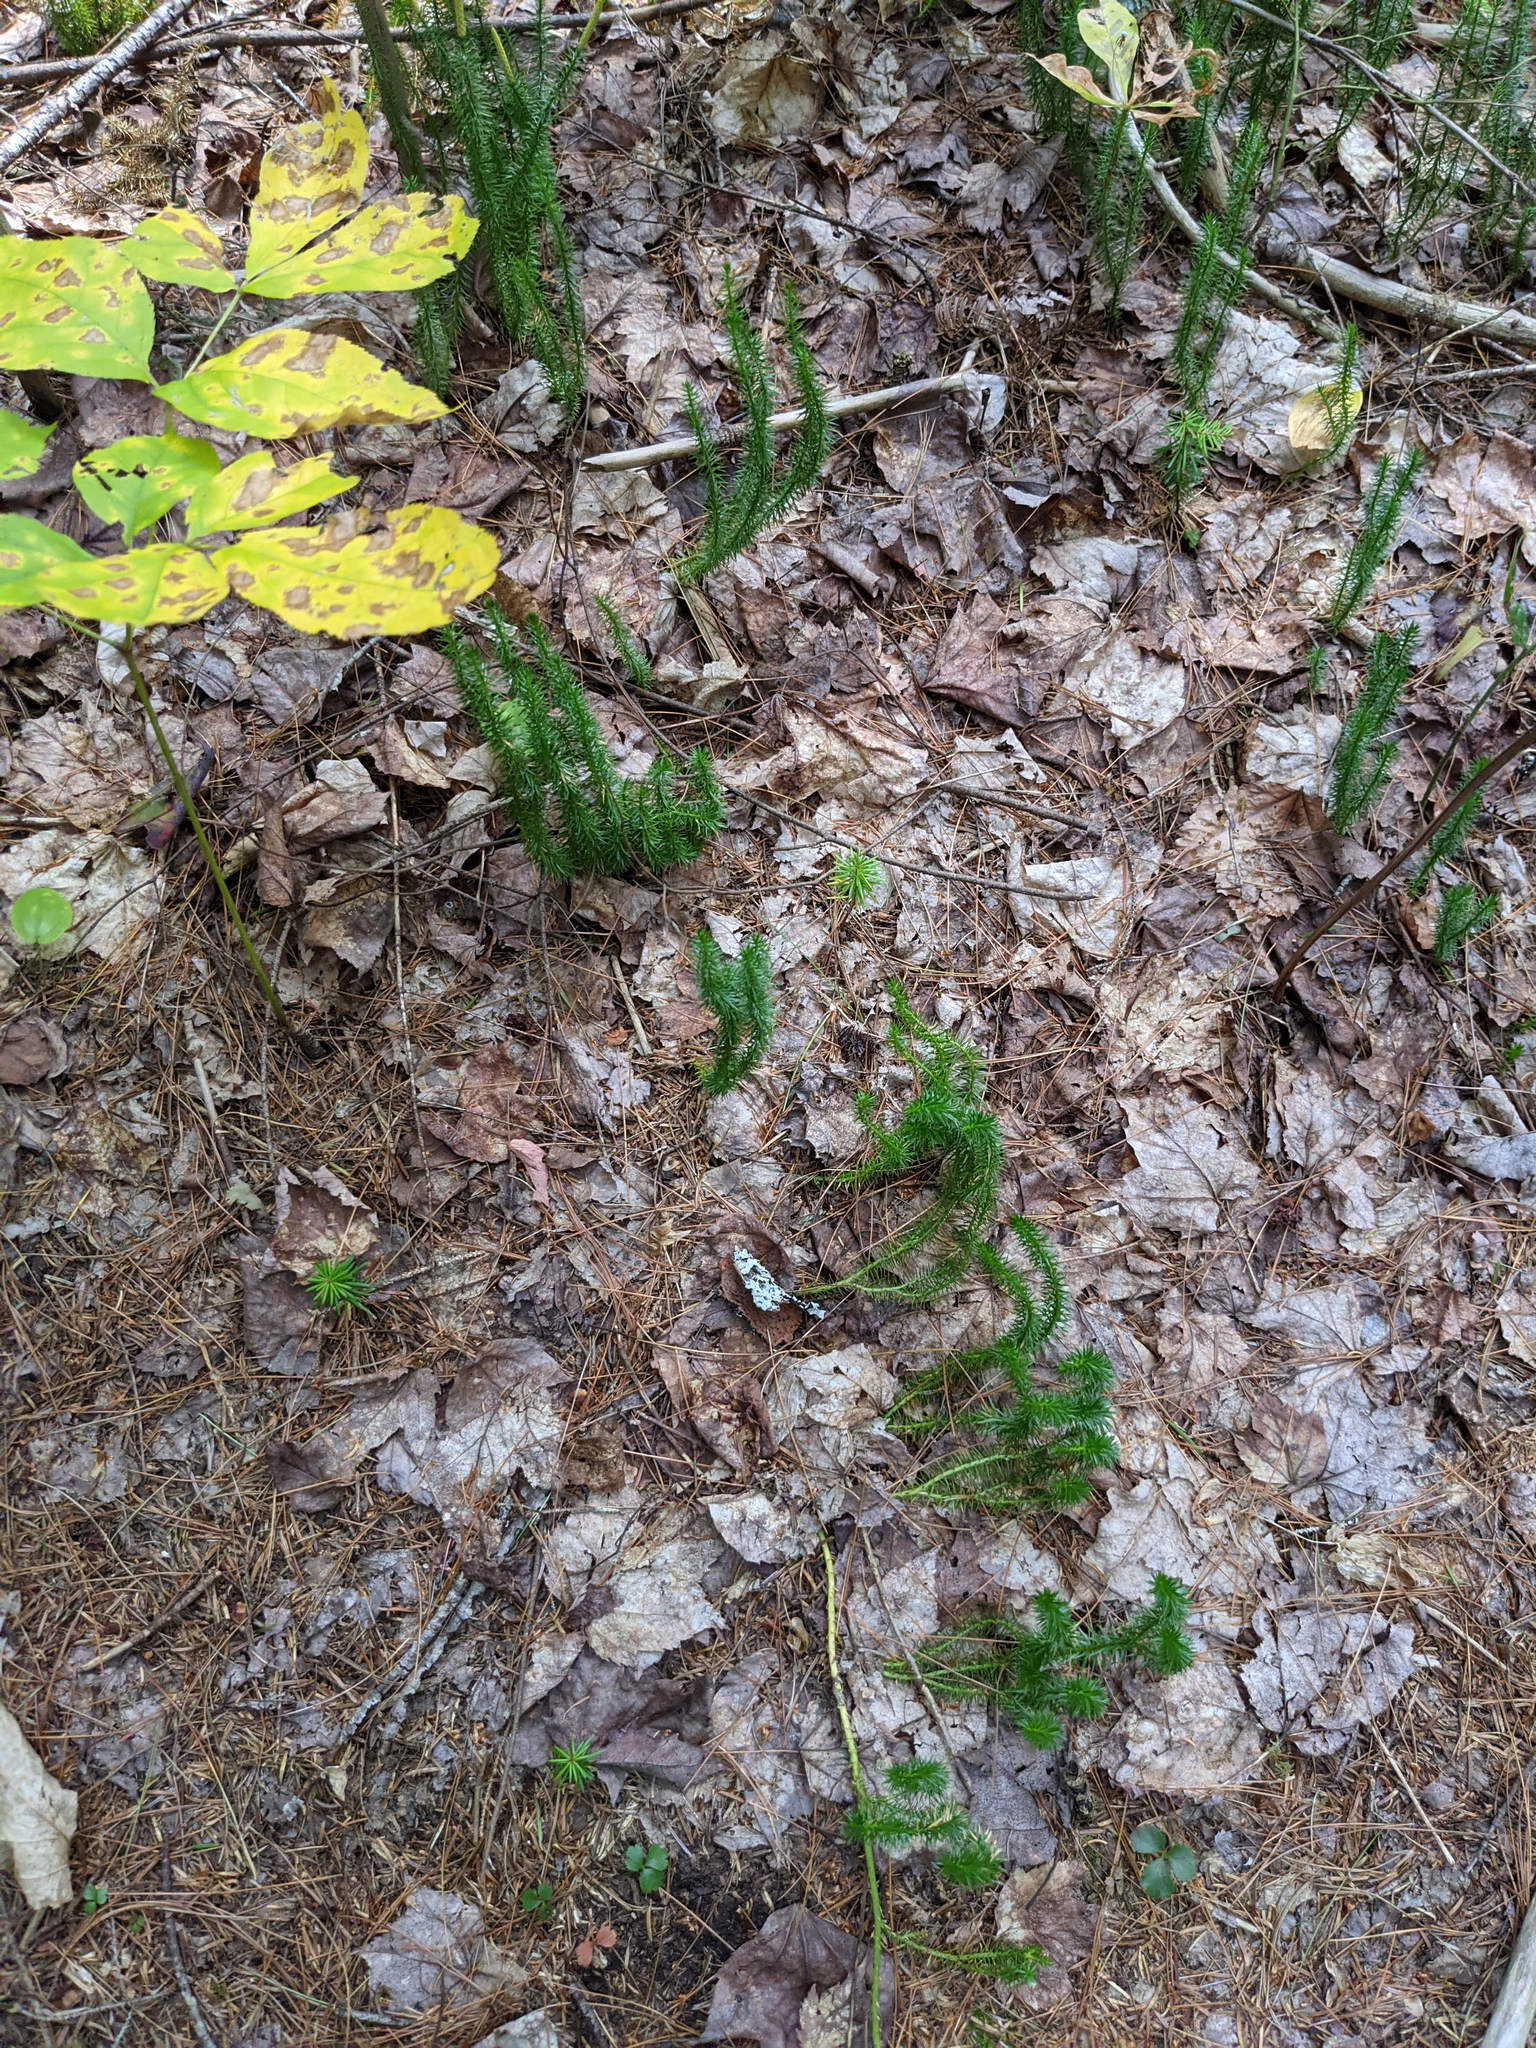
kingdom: Plantae
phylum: Tracheophyta
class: Magnoliopsida
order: Apiales
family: Araliaceae
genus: Aralia
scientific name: Aralia nudicaulis
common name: Wild sarsaparilla
